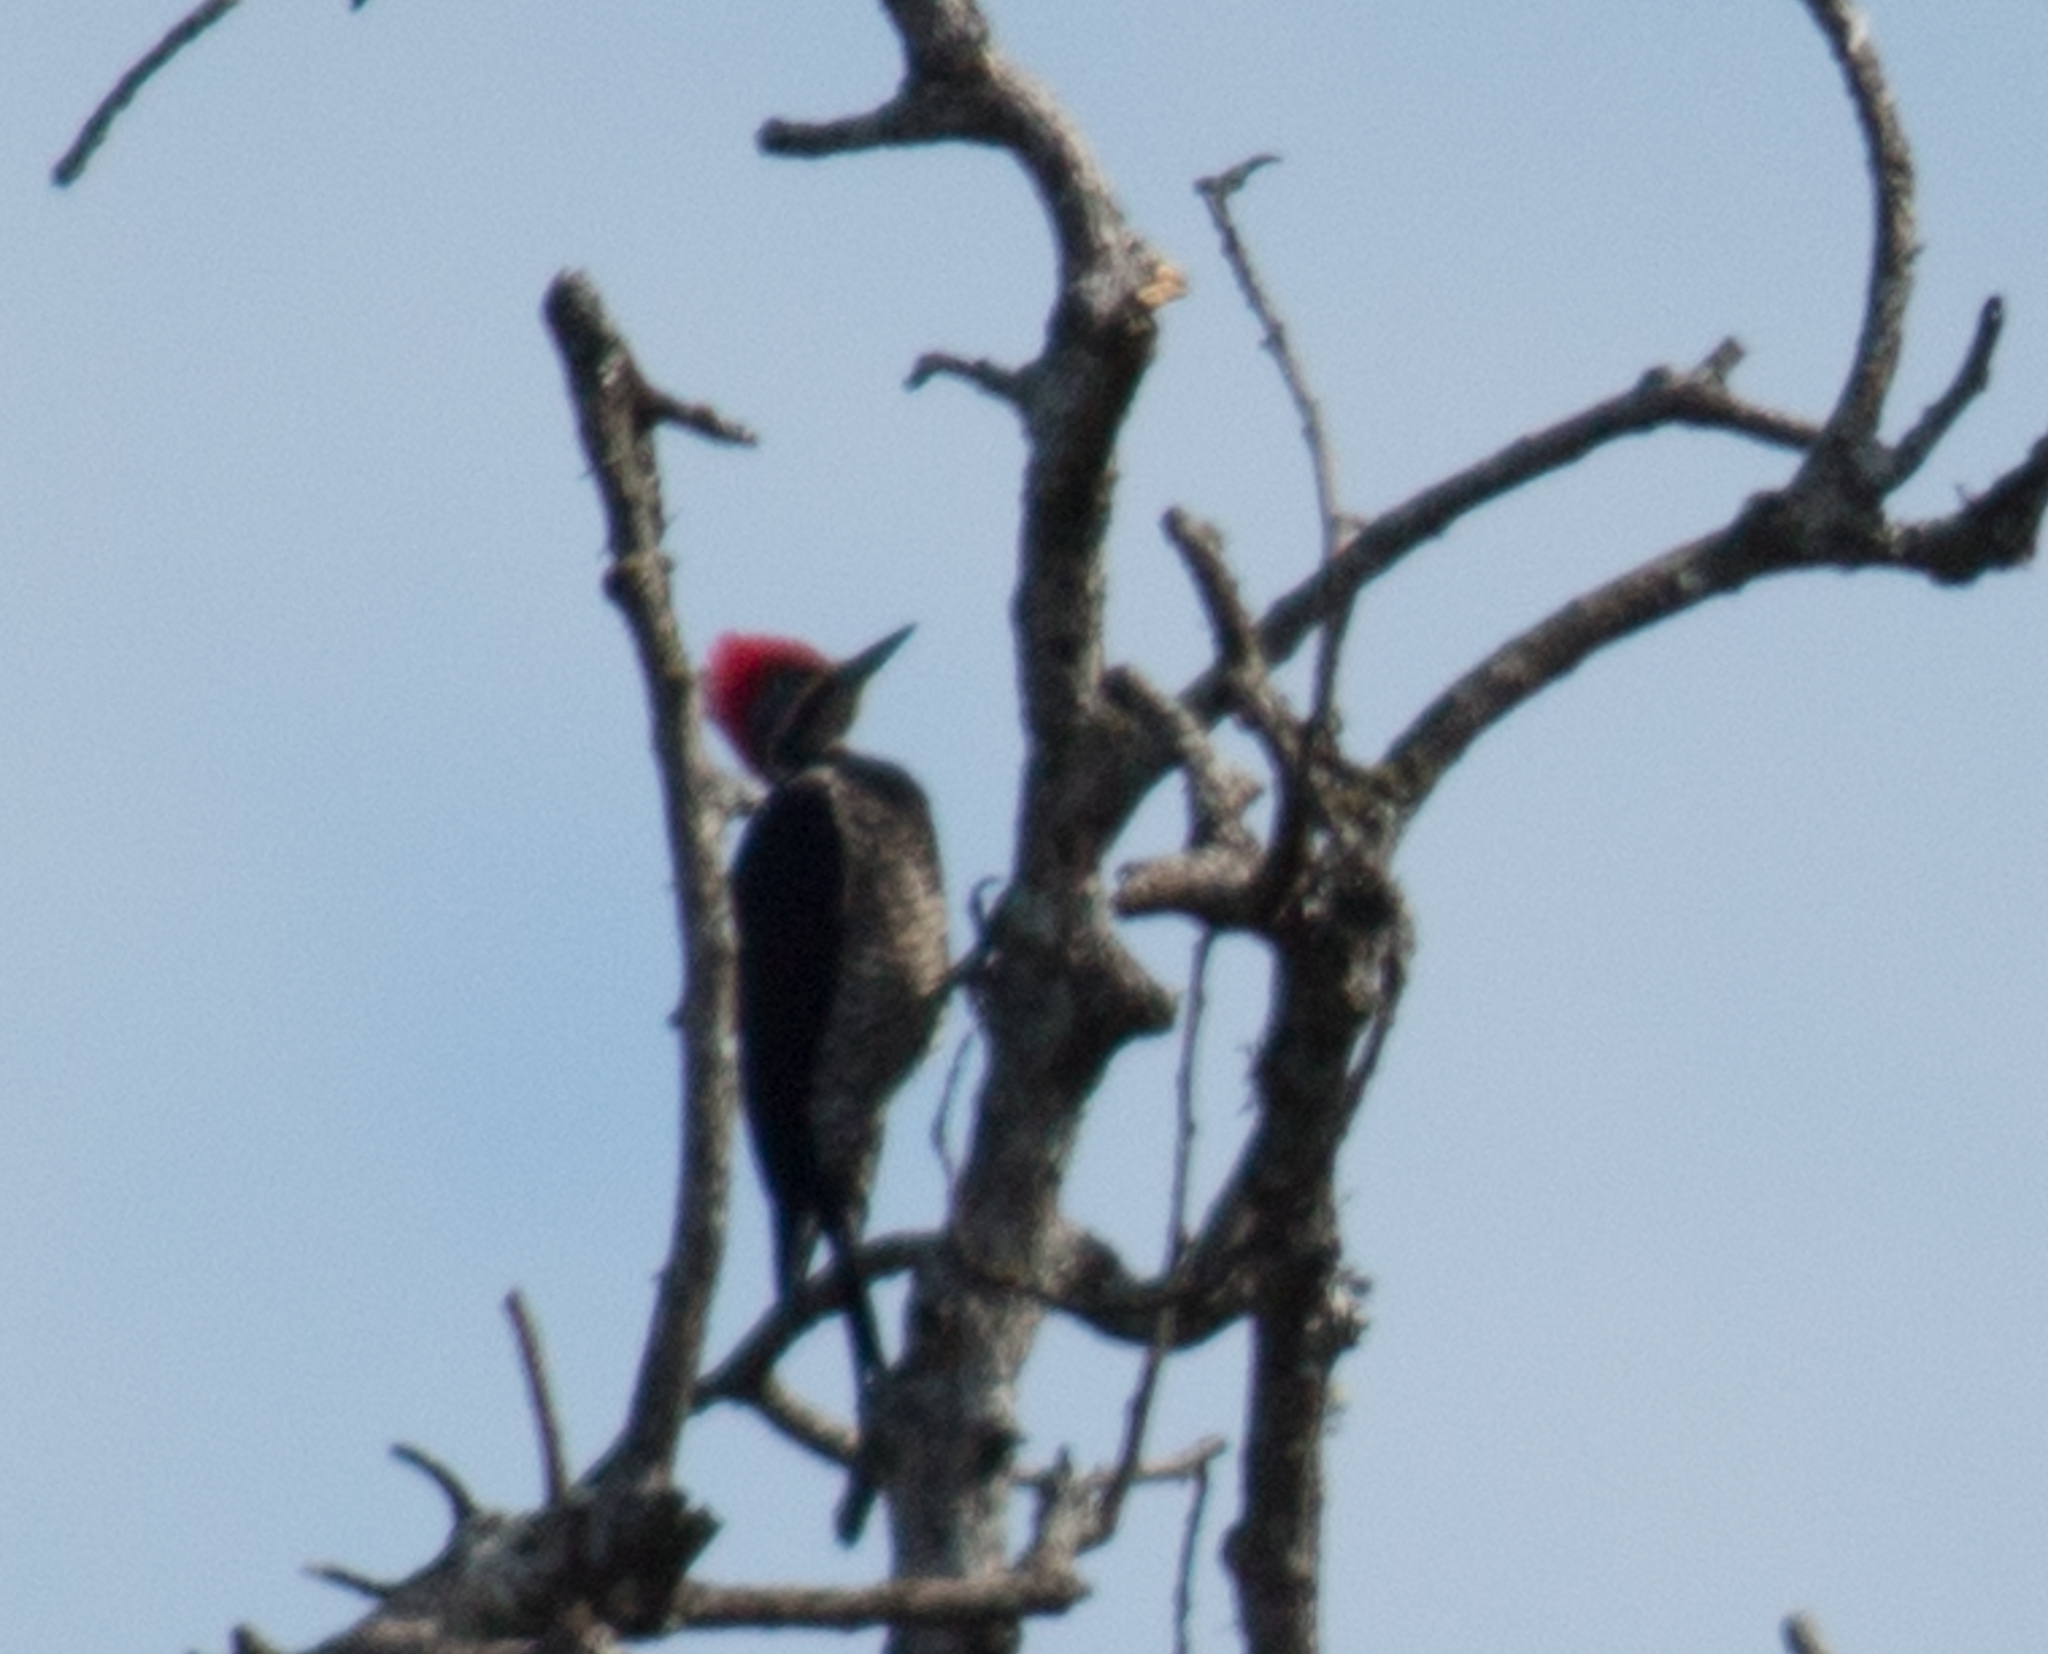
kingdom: Animalia
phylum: Chordata
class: Aves
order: Piciformes
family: Picidae
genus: Dryocopus
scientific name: Dryocopus lineatus
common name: Lineated woodpecker
